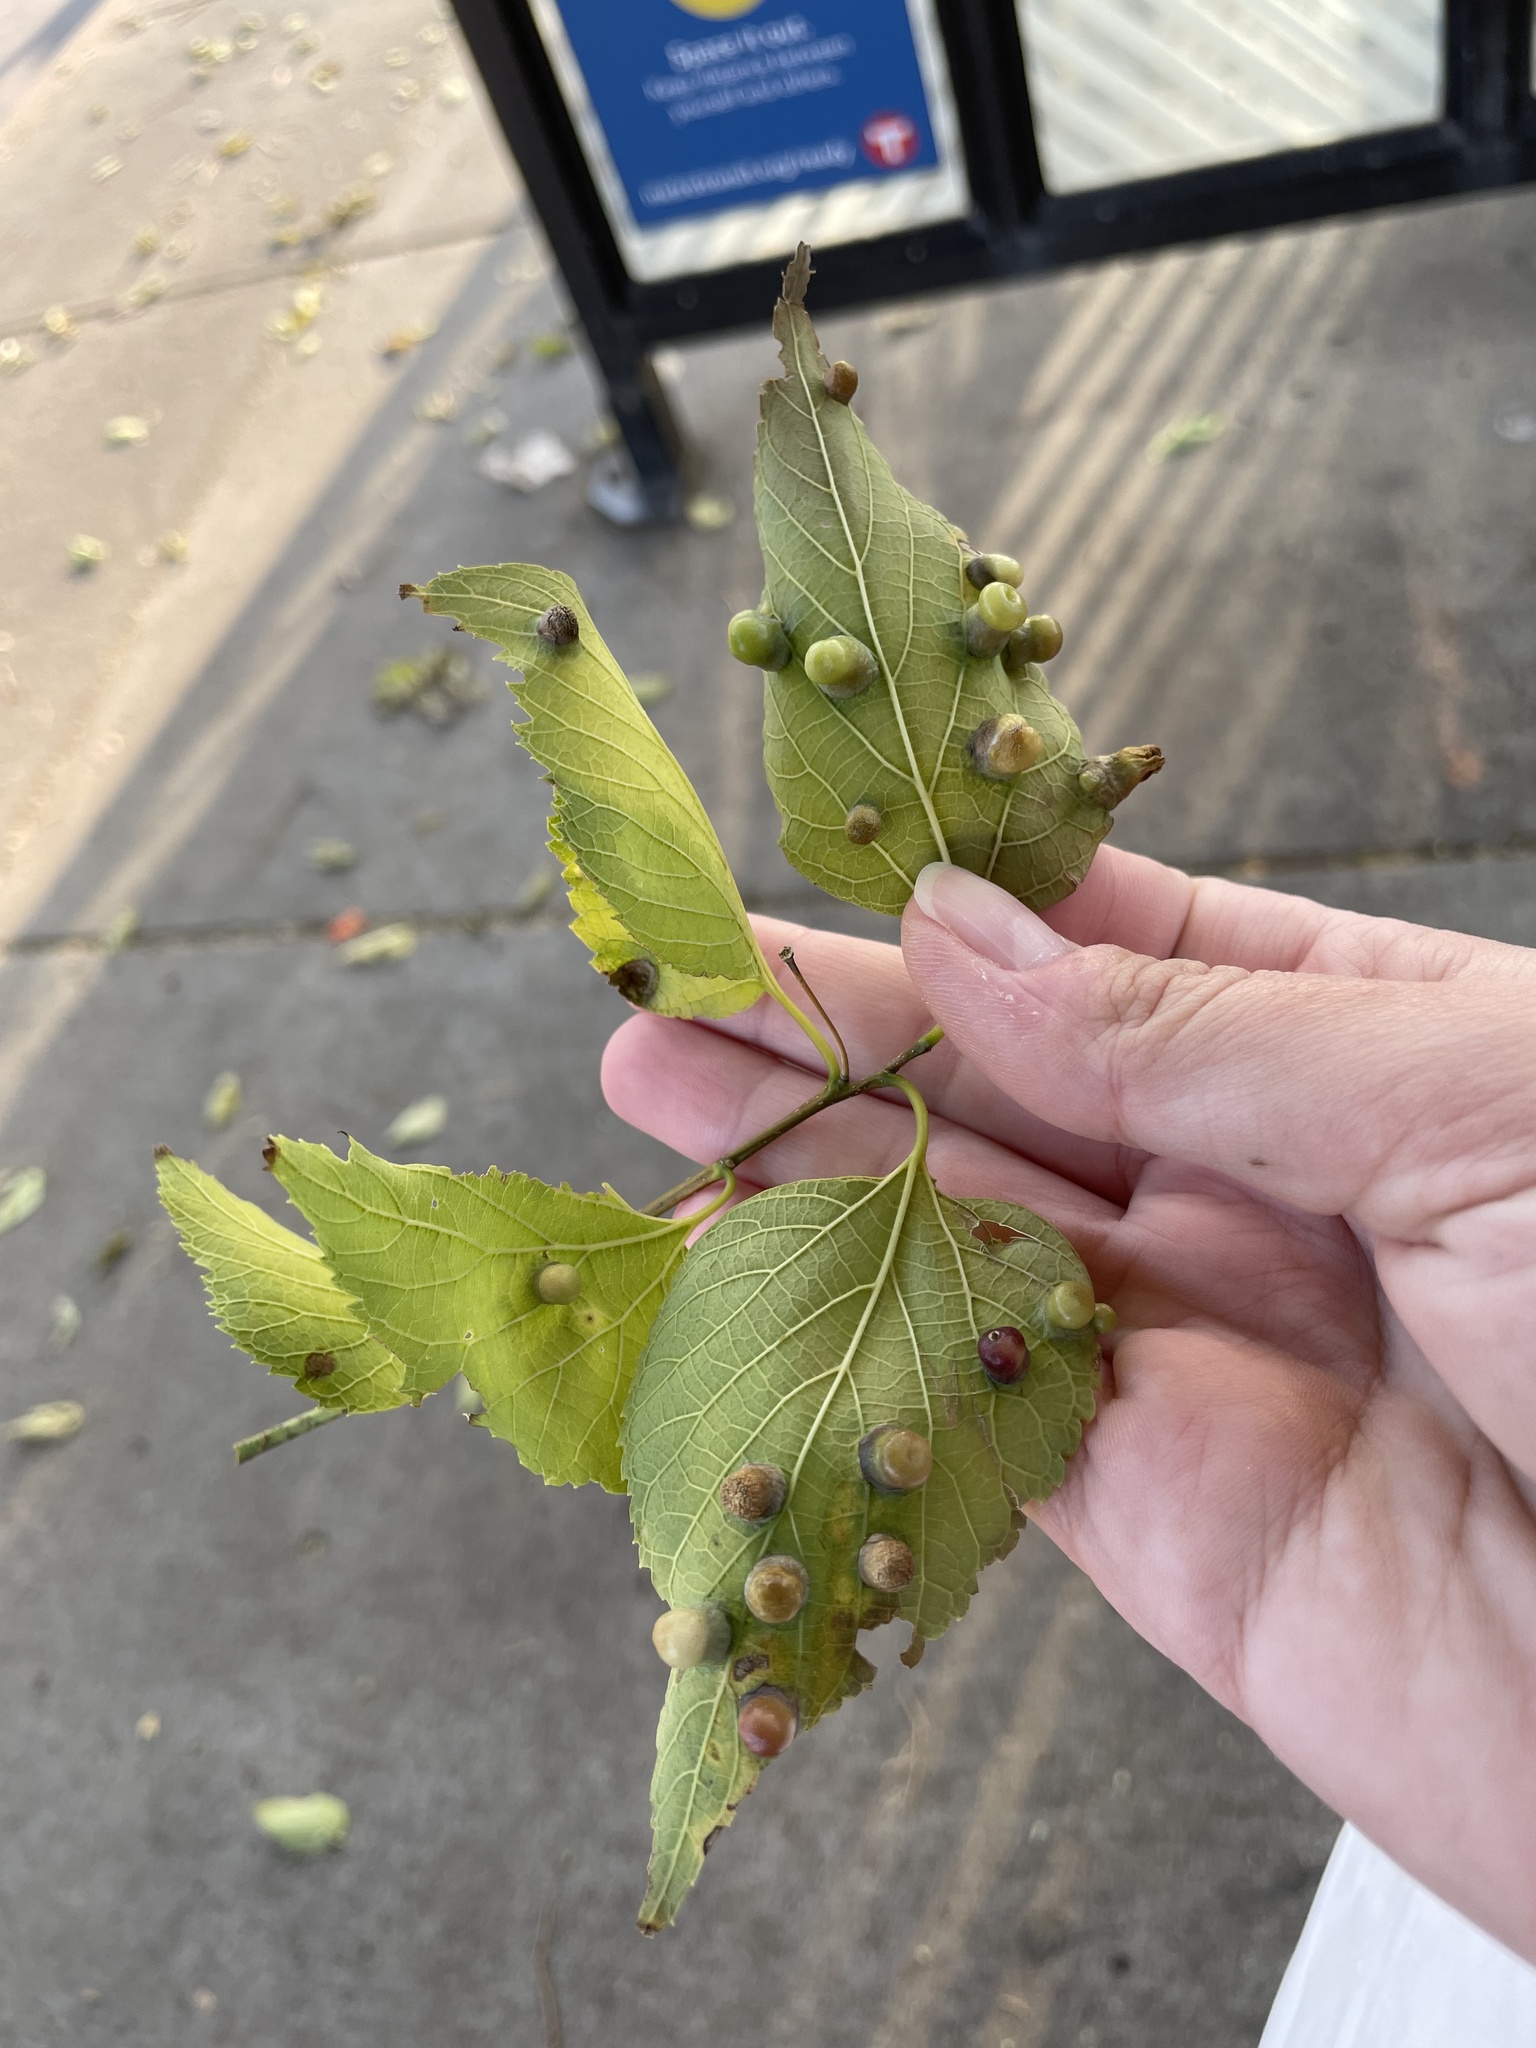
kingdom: Animalia
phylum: Arthropoda
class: Insecta
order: Hemiptera
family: Aphalaridae
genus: Pachypsylla
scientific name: Pachypsylla celtidismamma
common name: Hackberry nipplegall psyllid
